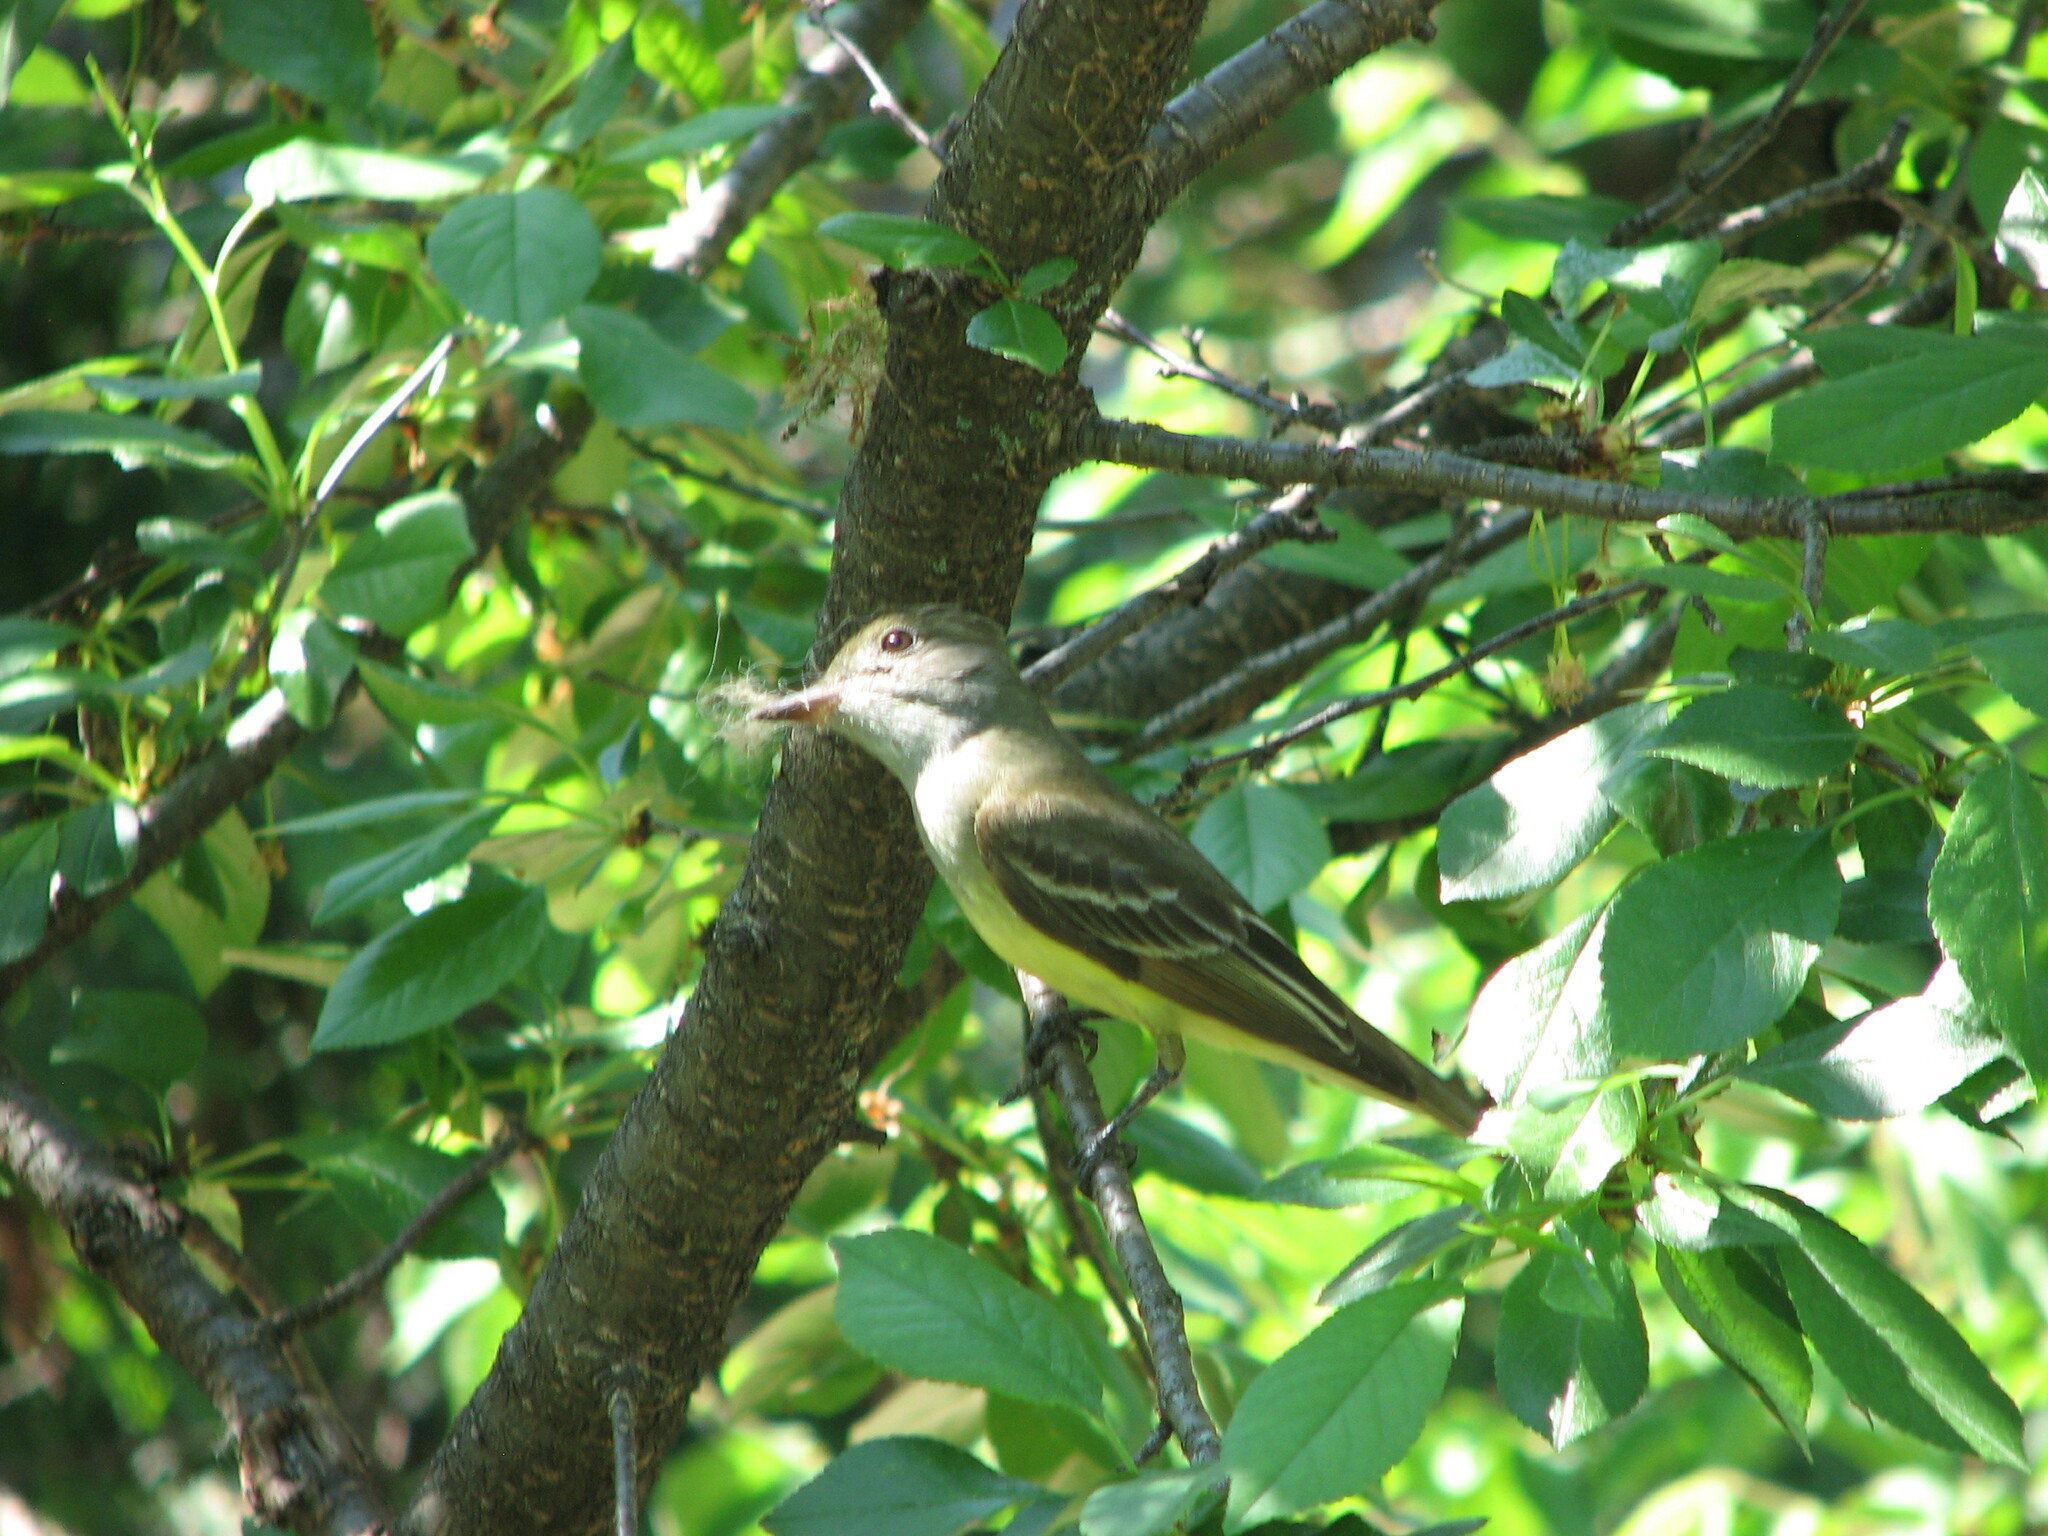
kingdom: Animalia
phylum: Chordata
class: Aves
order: Passeriformes
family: Tyrannidae
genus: Myiarchus
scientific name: Myiarchus crinitus
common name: Great crested flycatcher
